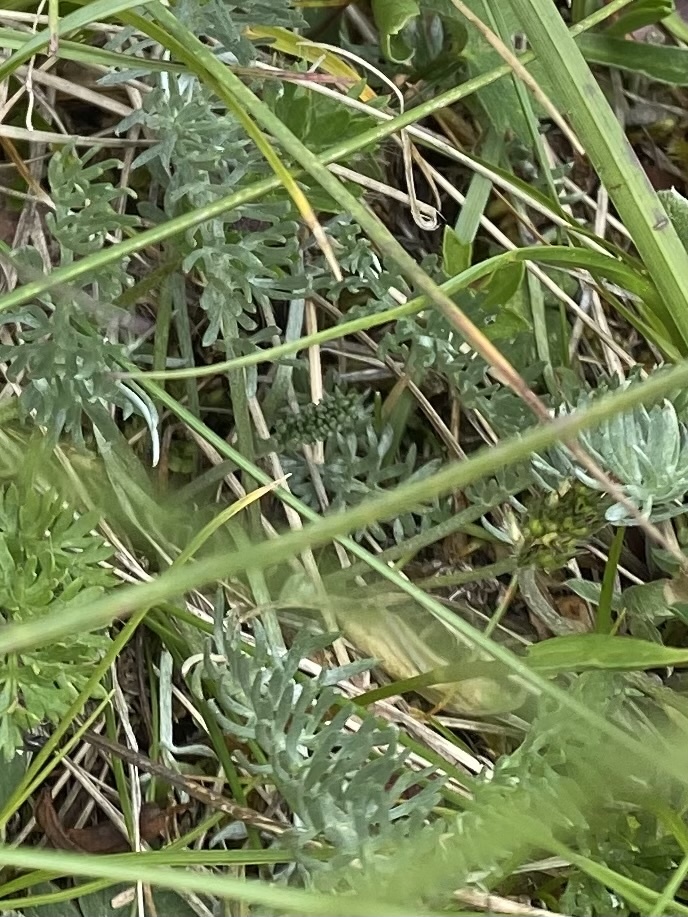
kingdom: Plantae
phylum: Tracheophyta
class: Magnoliopsida
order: Asterales
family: Asteraceae
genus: Archanthemis
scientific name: Archanthemis marschalliana
